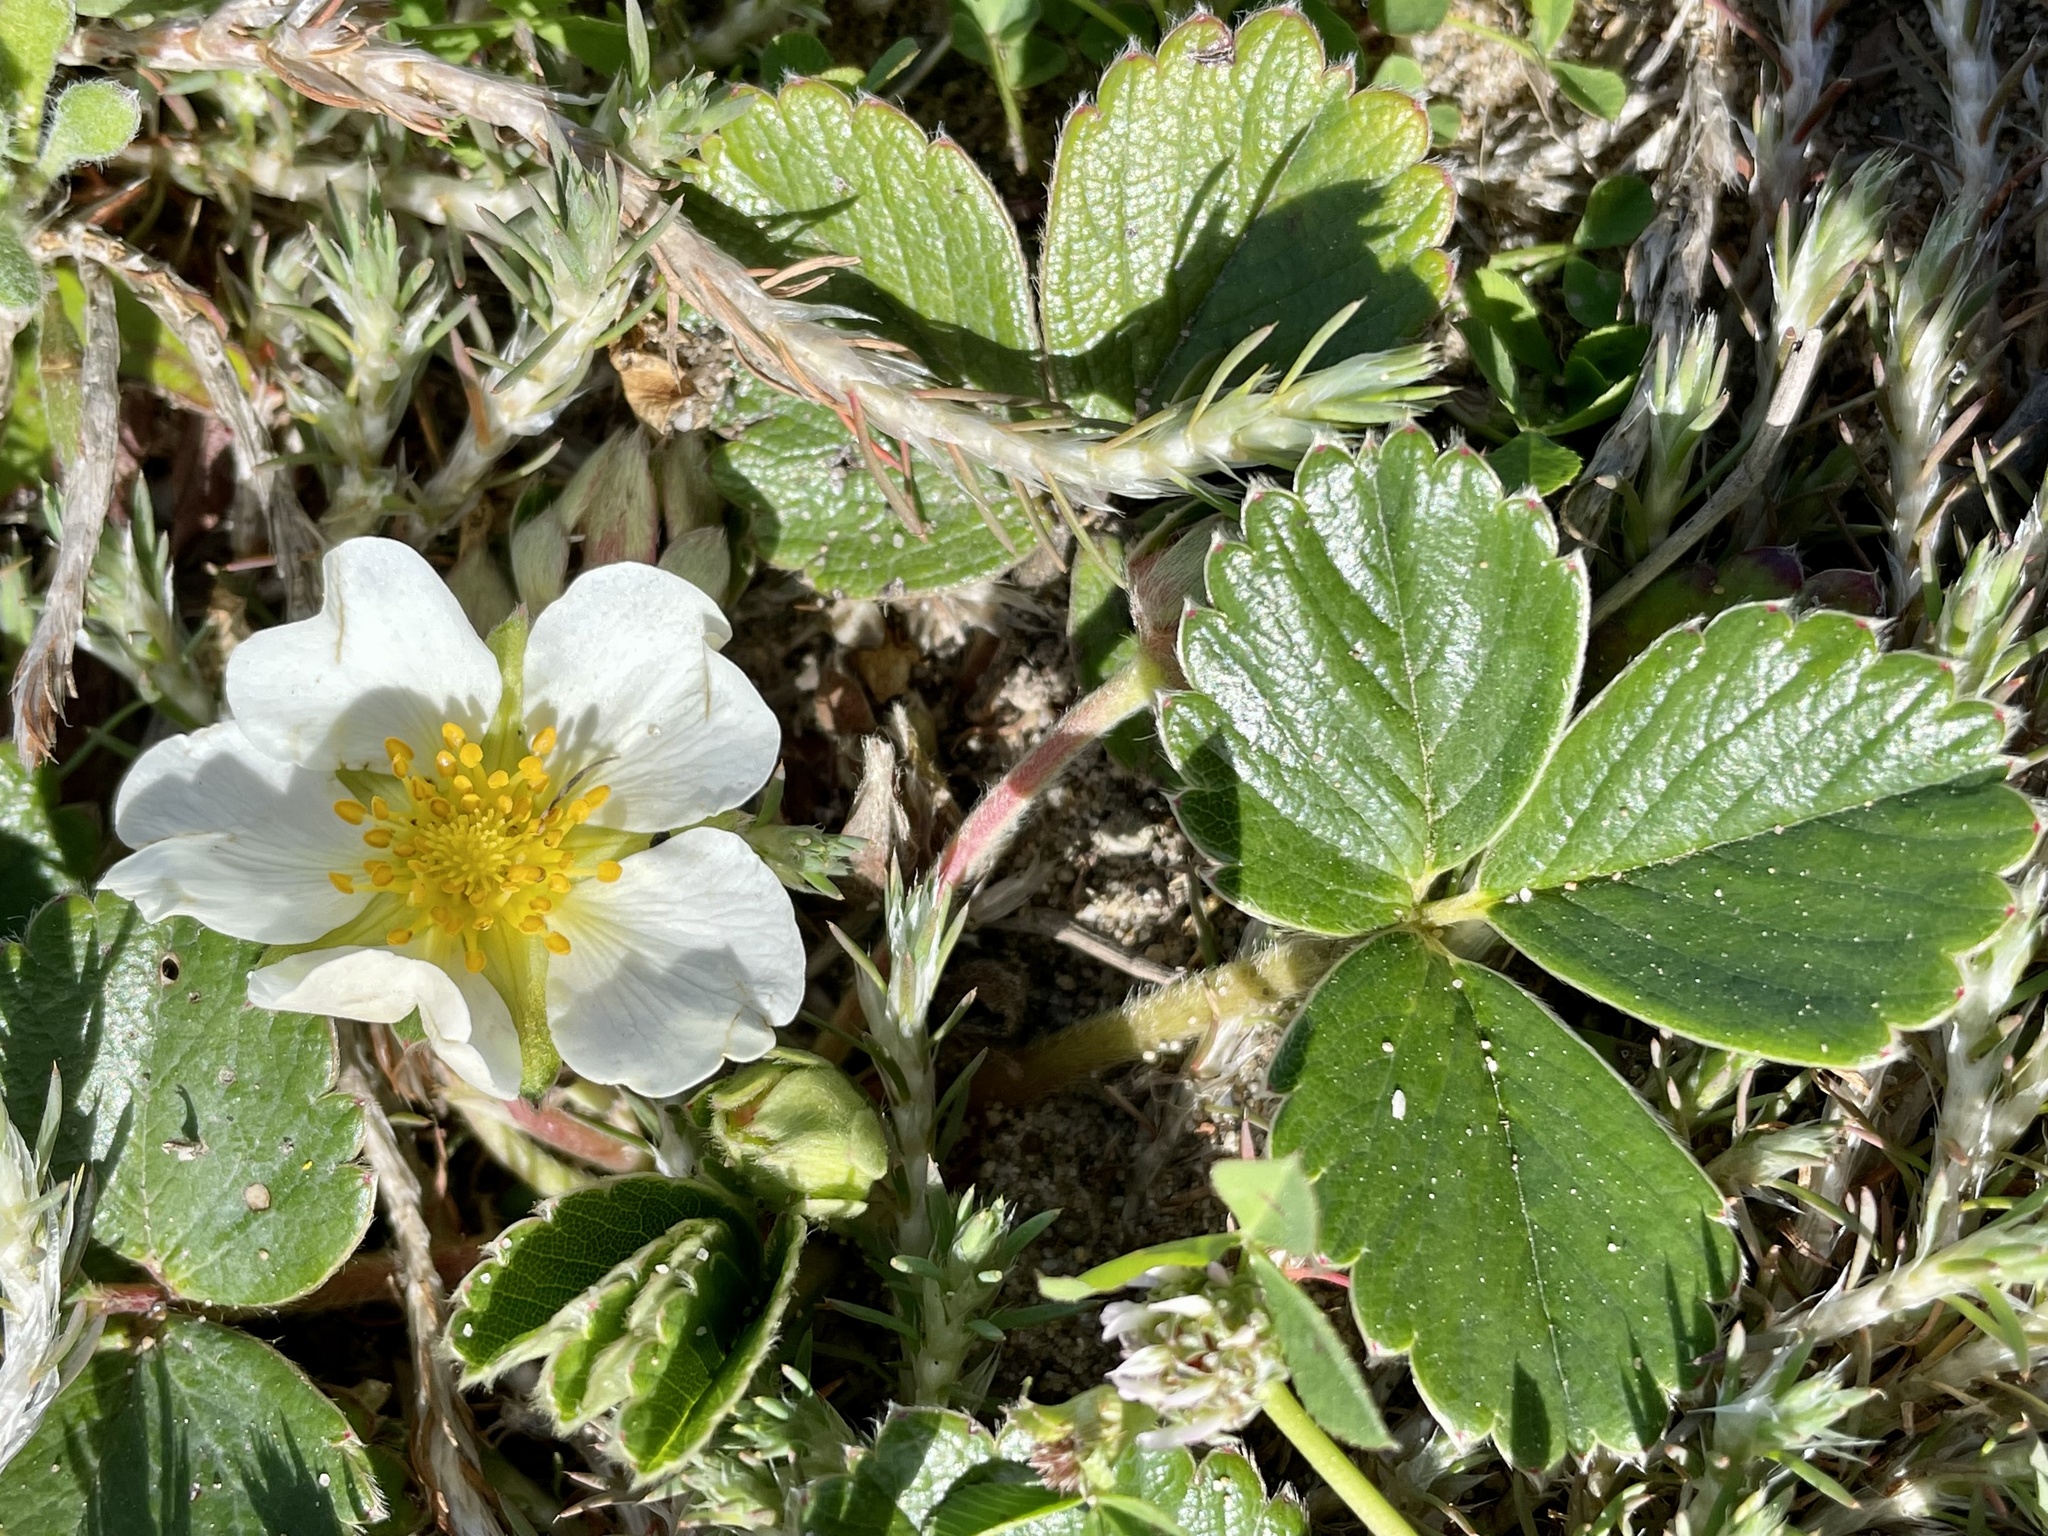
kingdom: Plantae
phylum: Tracheophyta
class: Magnoliopsida
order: Rosales
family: Rosaceae
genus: Fragaria
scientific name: Fragaria chiloensis
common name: Beach strawberry
